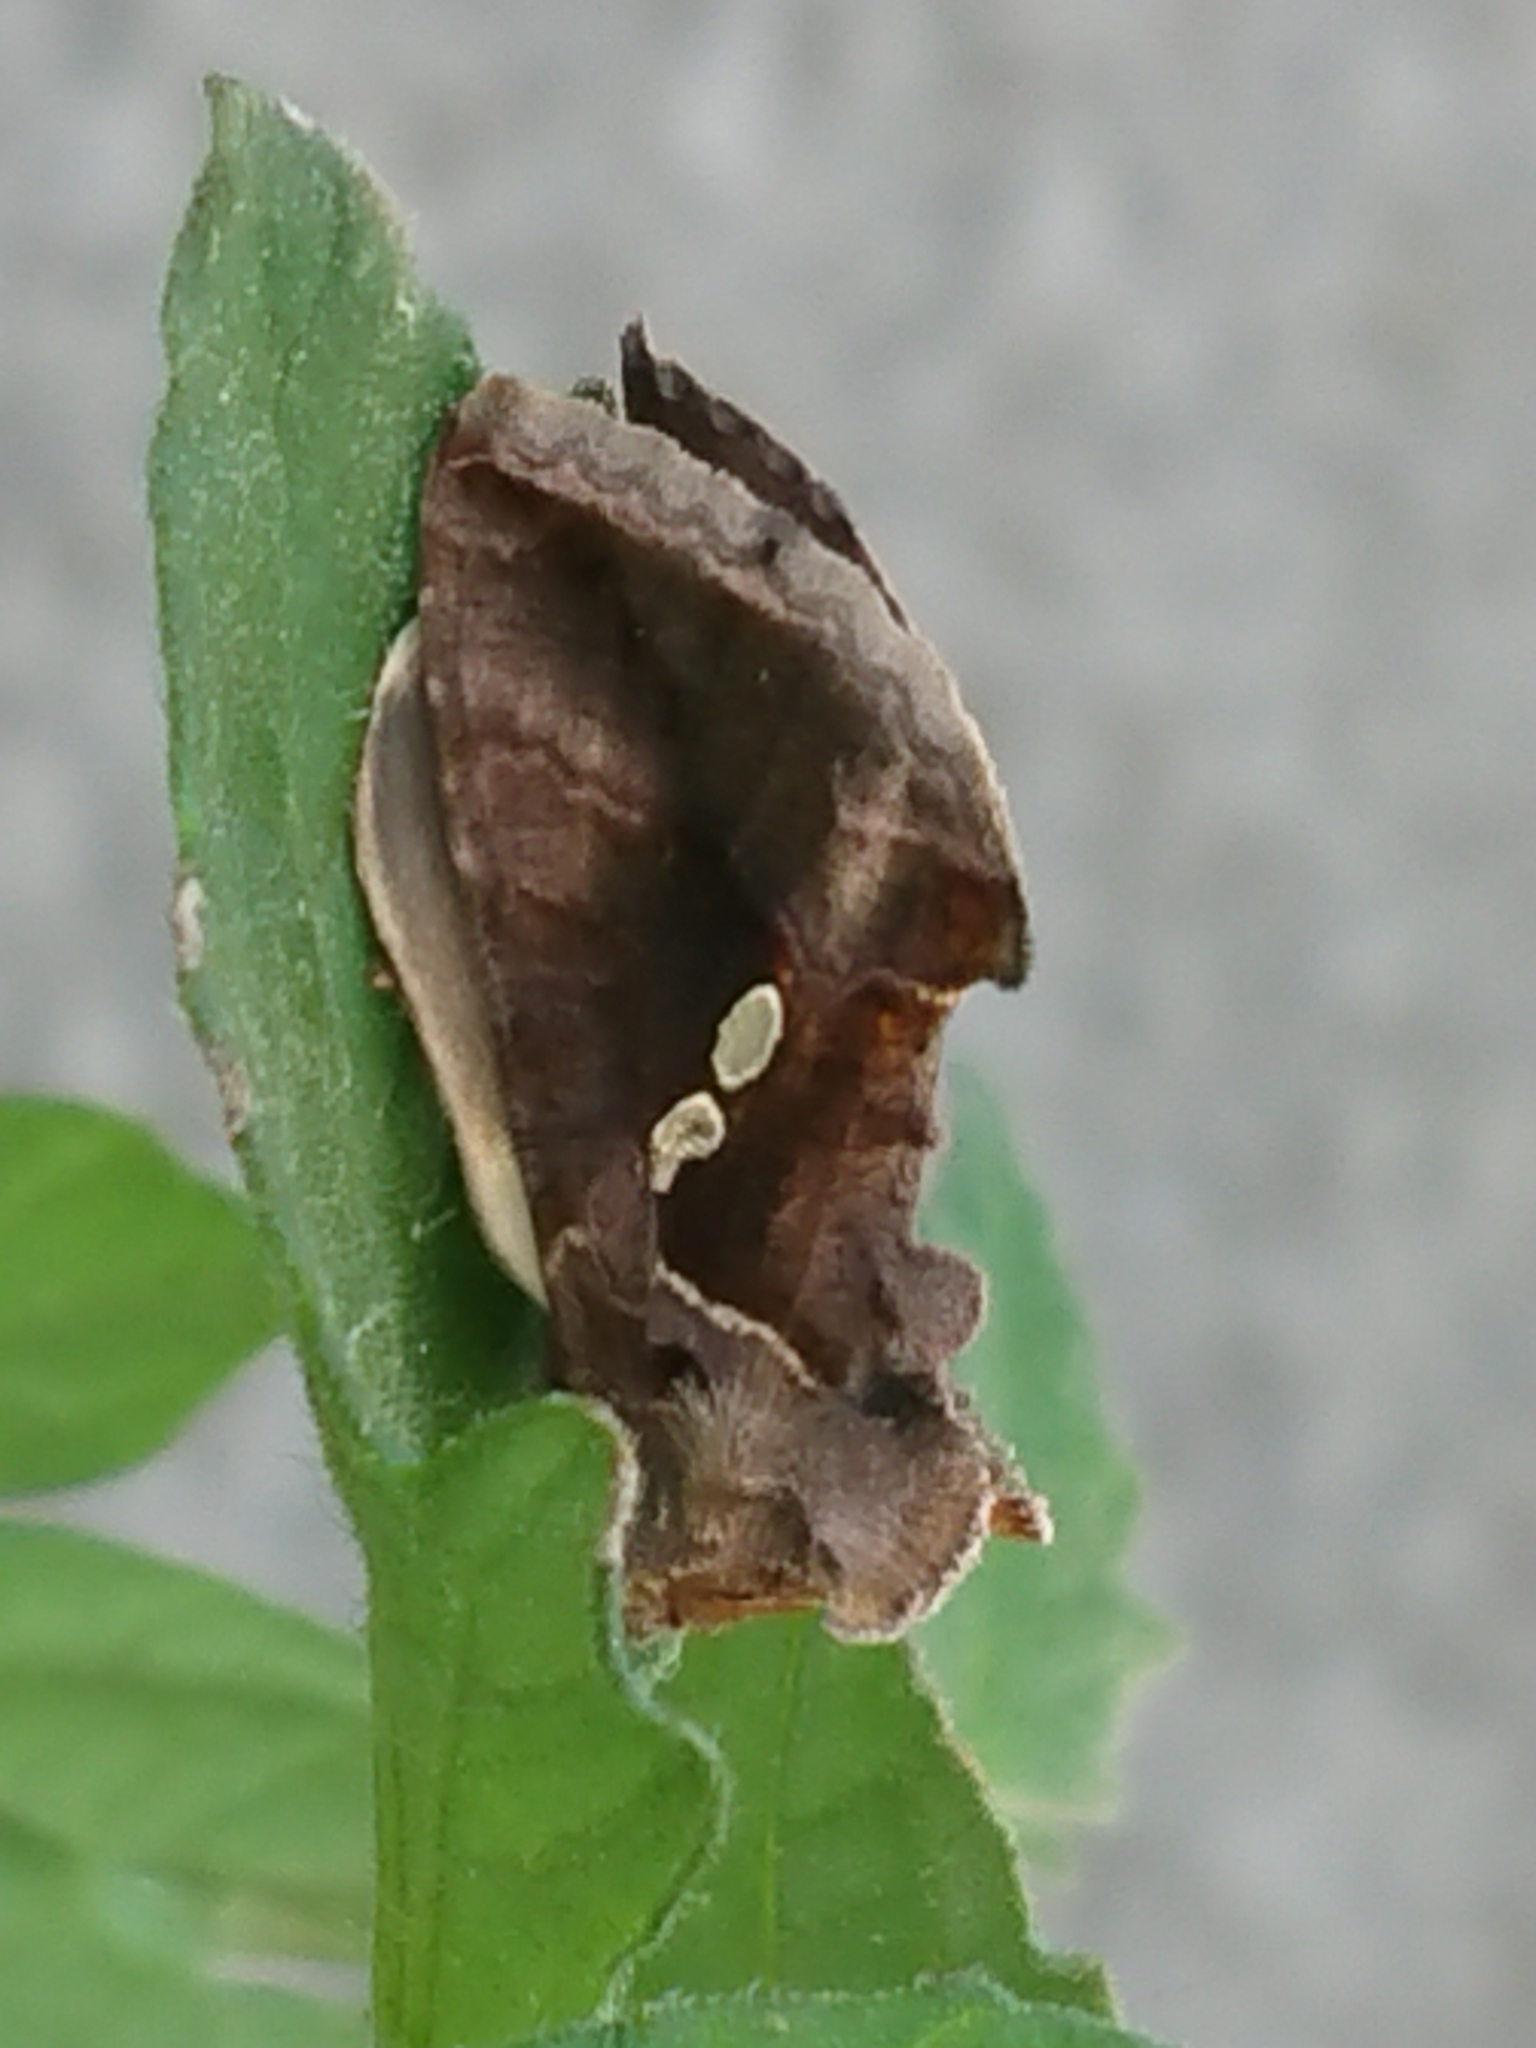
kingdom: Animalia
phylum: Arthropoda
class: Insecta
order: Lepidoptera
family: Noctuidae
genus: Chrysodeixis
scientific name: Chrysodeixis eriosoma
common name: Green garden looper
